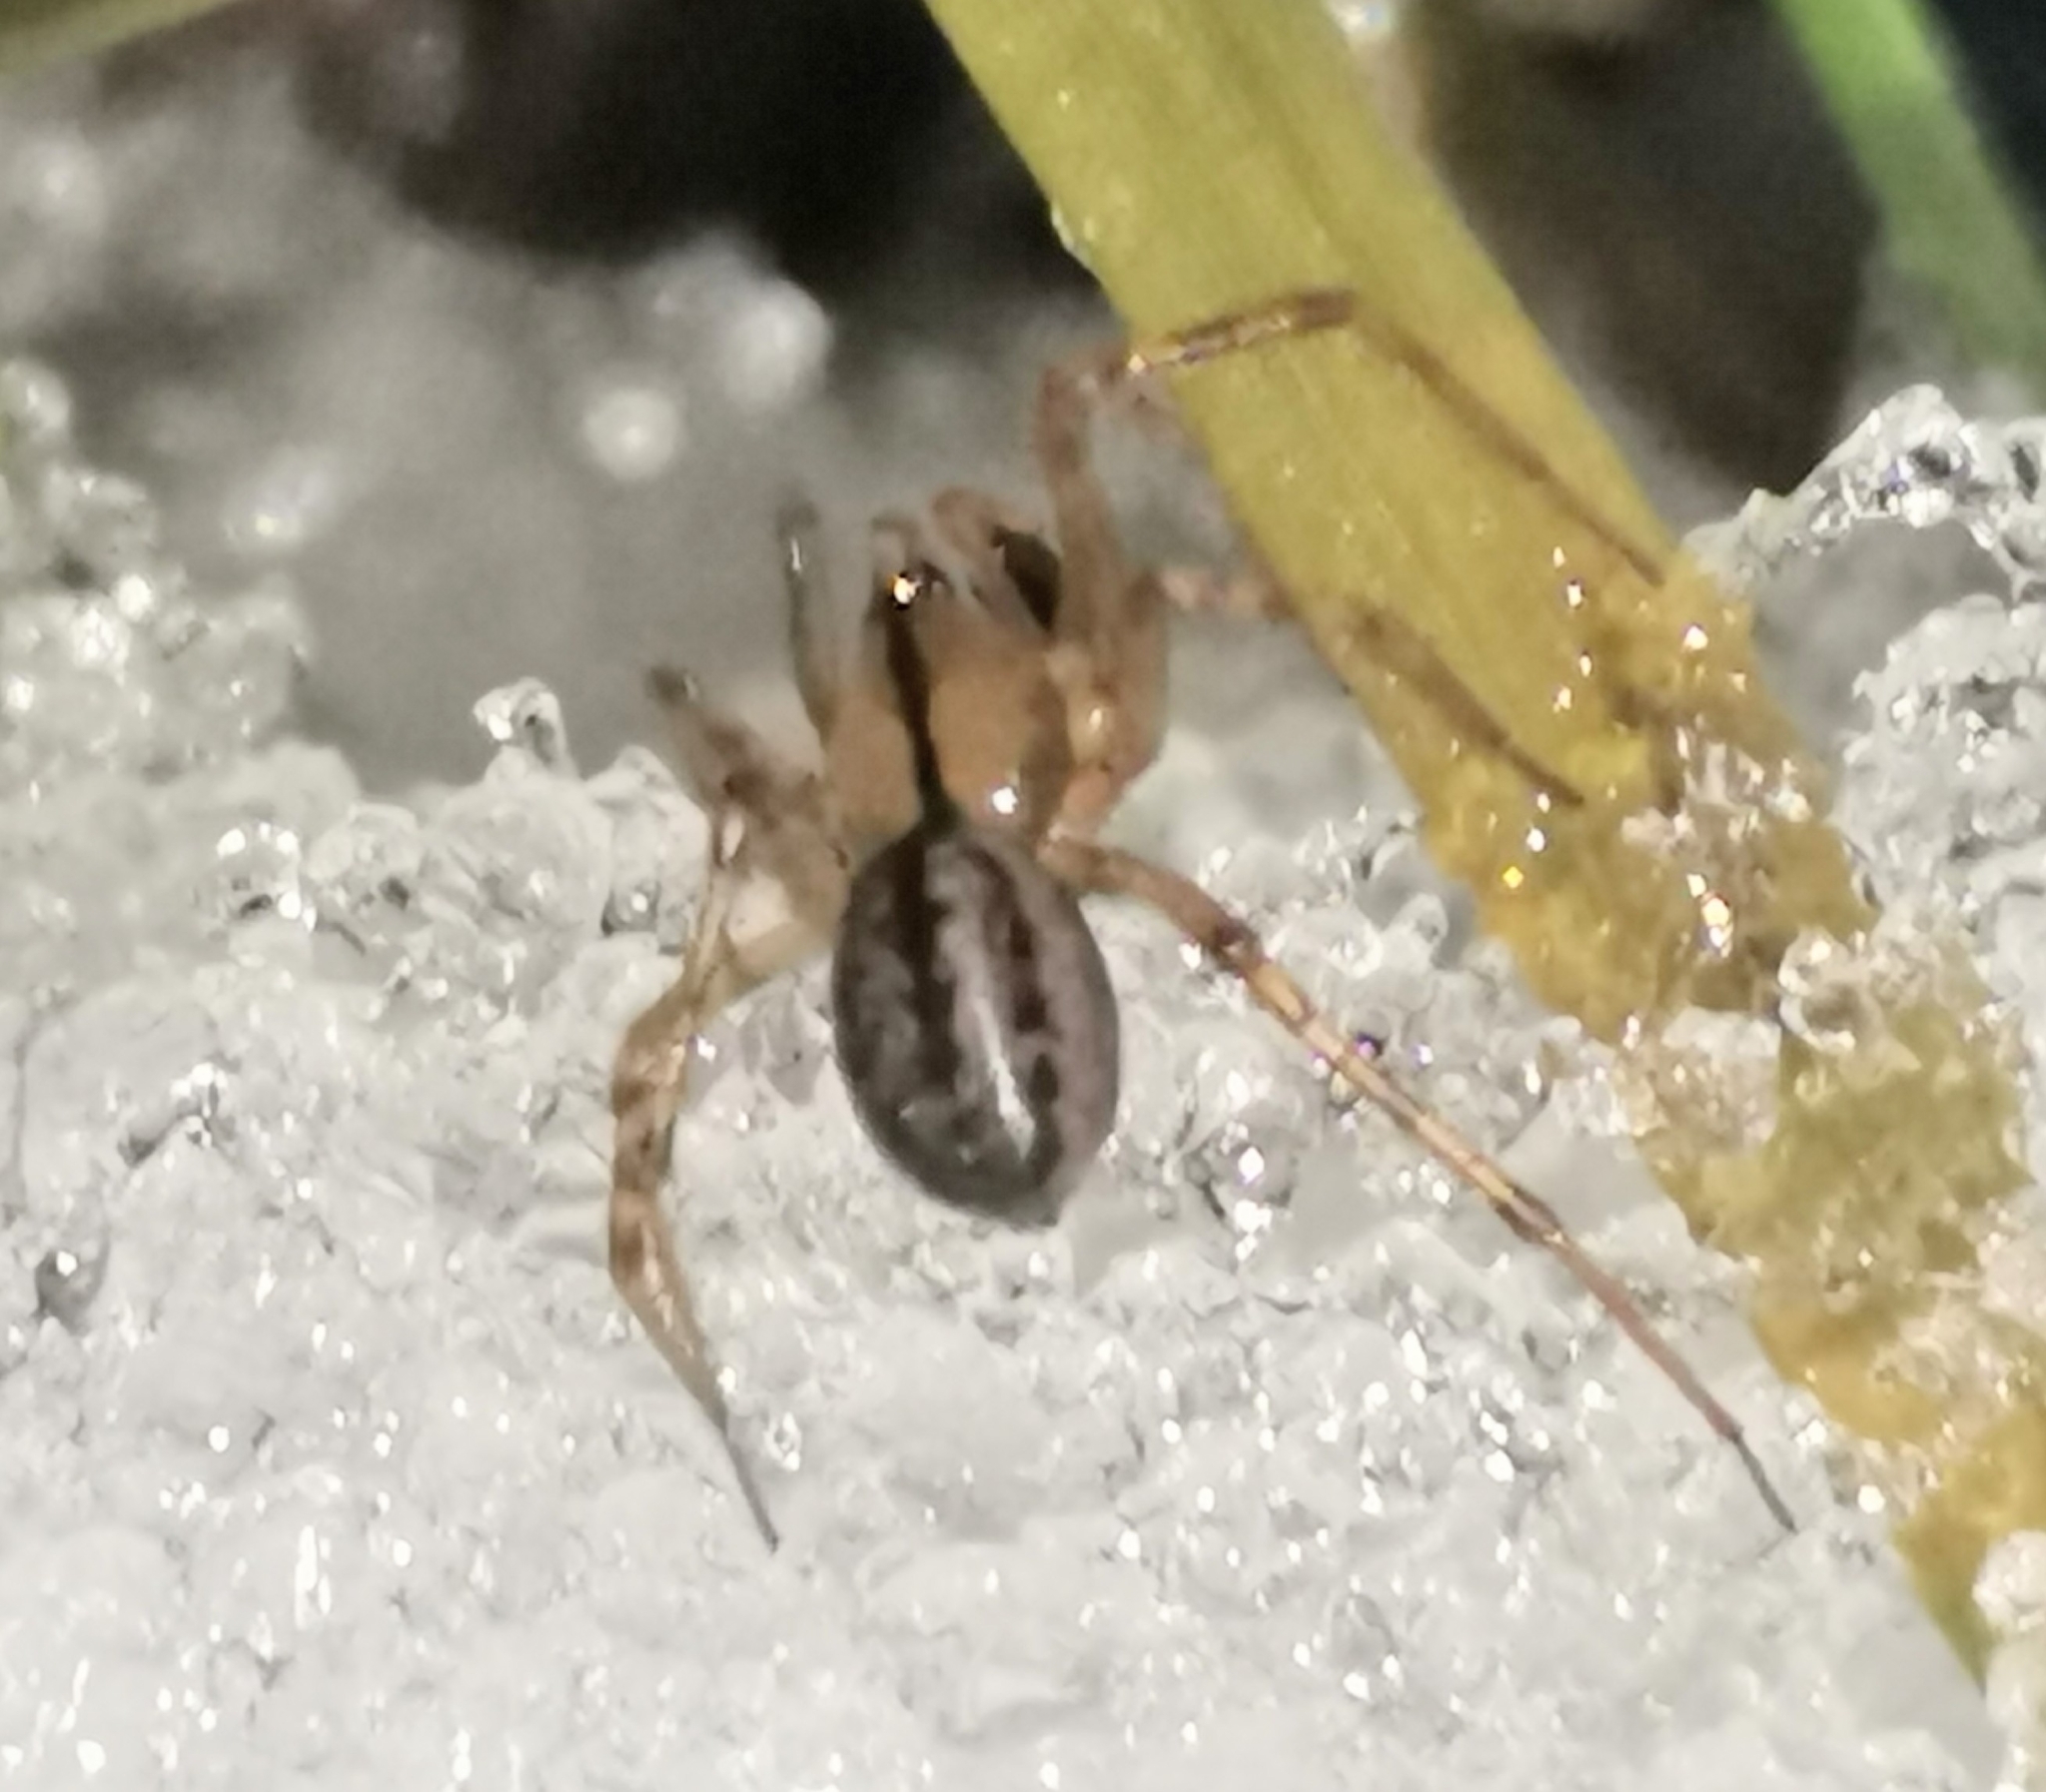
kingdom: Animalia
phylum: Arthropoda
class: Arachnida
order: Araneae
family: Linyphiidae
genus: Stemonyphantes
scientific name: Stemonyphantes lineatus
